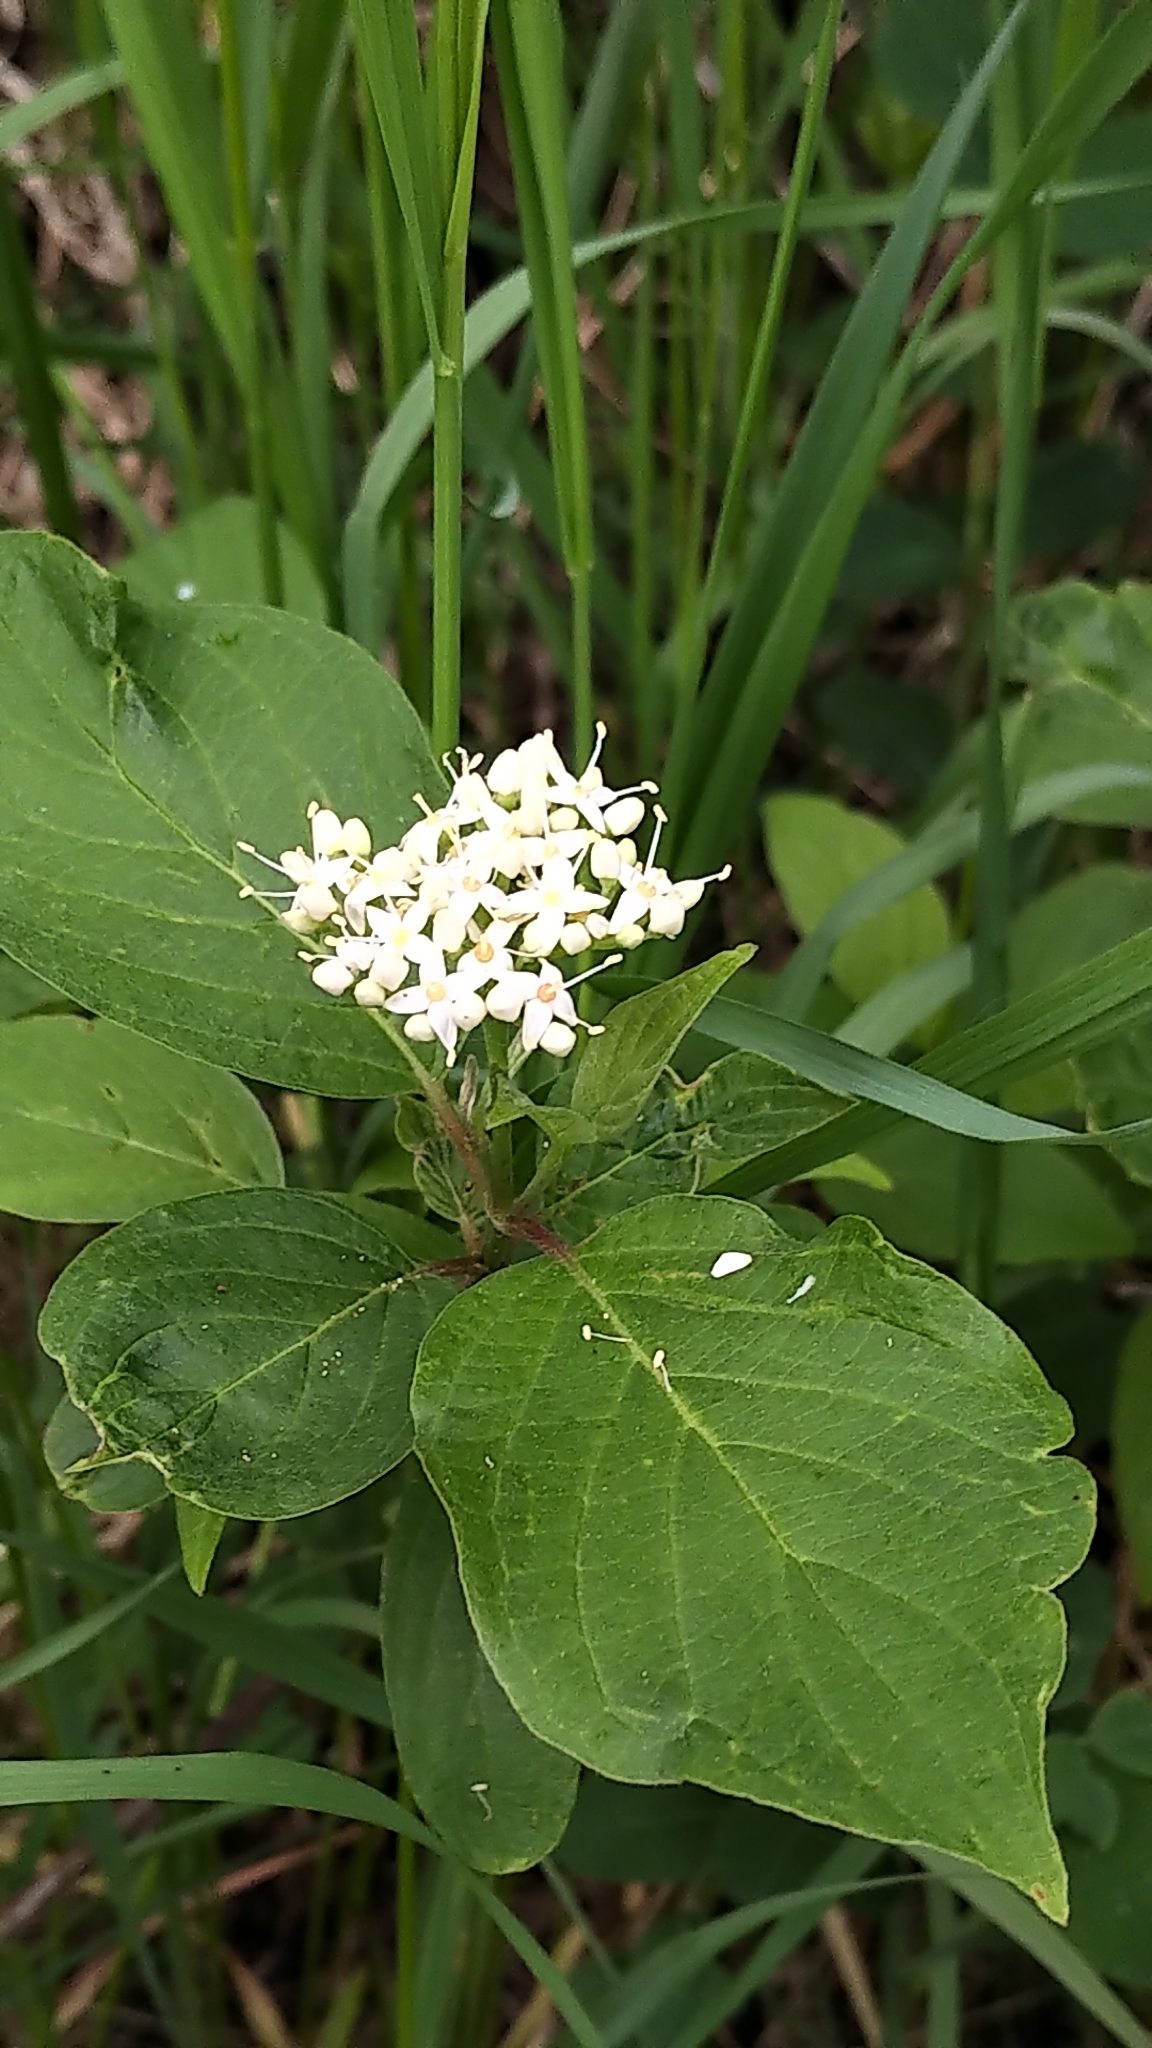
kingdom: Plantae
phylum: Tracheophyta
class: Magnoliopsida
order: Cornales
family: Cornaceae
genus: Cornus
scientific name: Cornus sericea
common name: Red-osier dogwood
